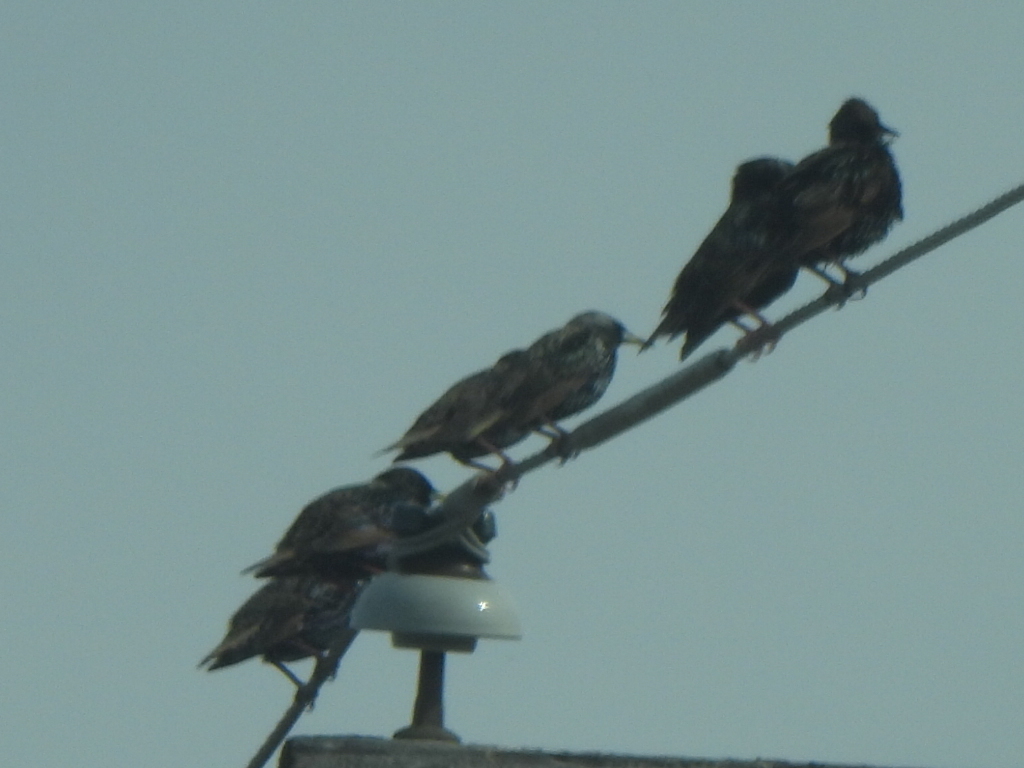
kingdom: Animalia
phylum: Chordata
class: Aves
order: Passeriformes
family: Sturnidae
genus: Sturnus
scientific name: Sturnus vulgaris
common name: Common starling
